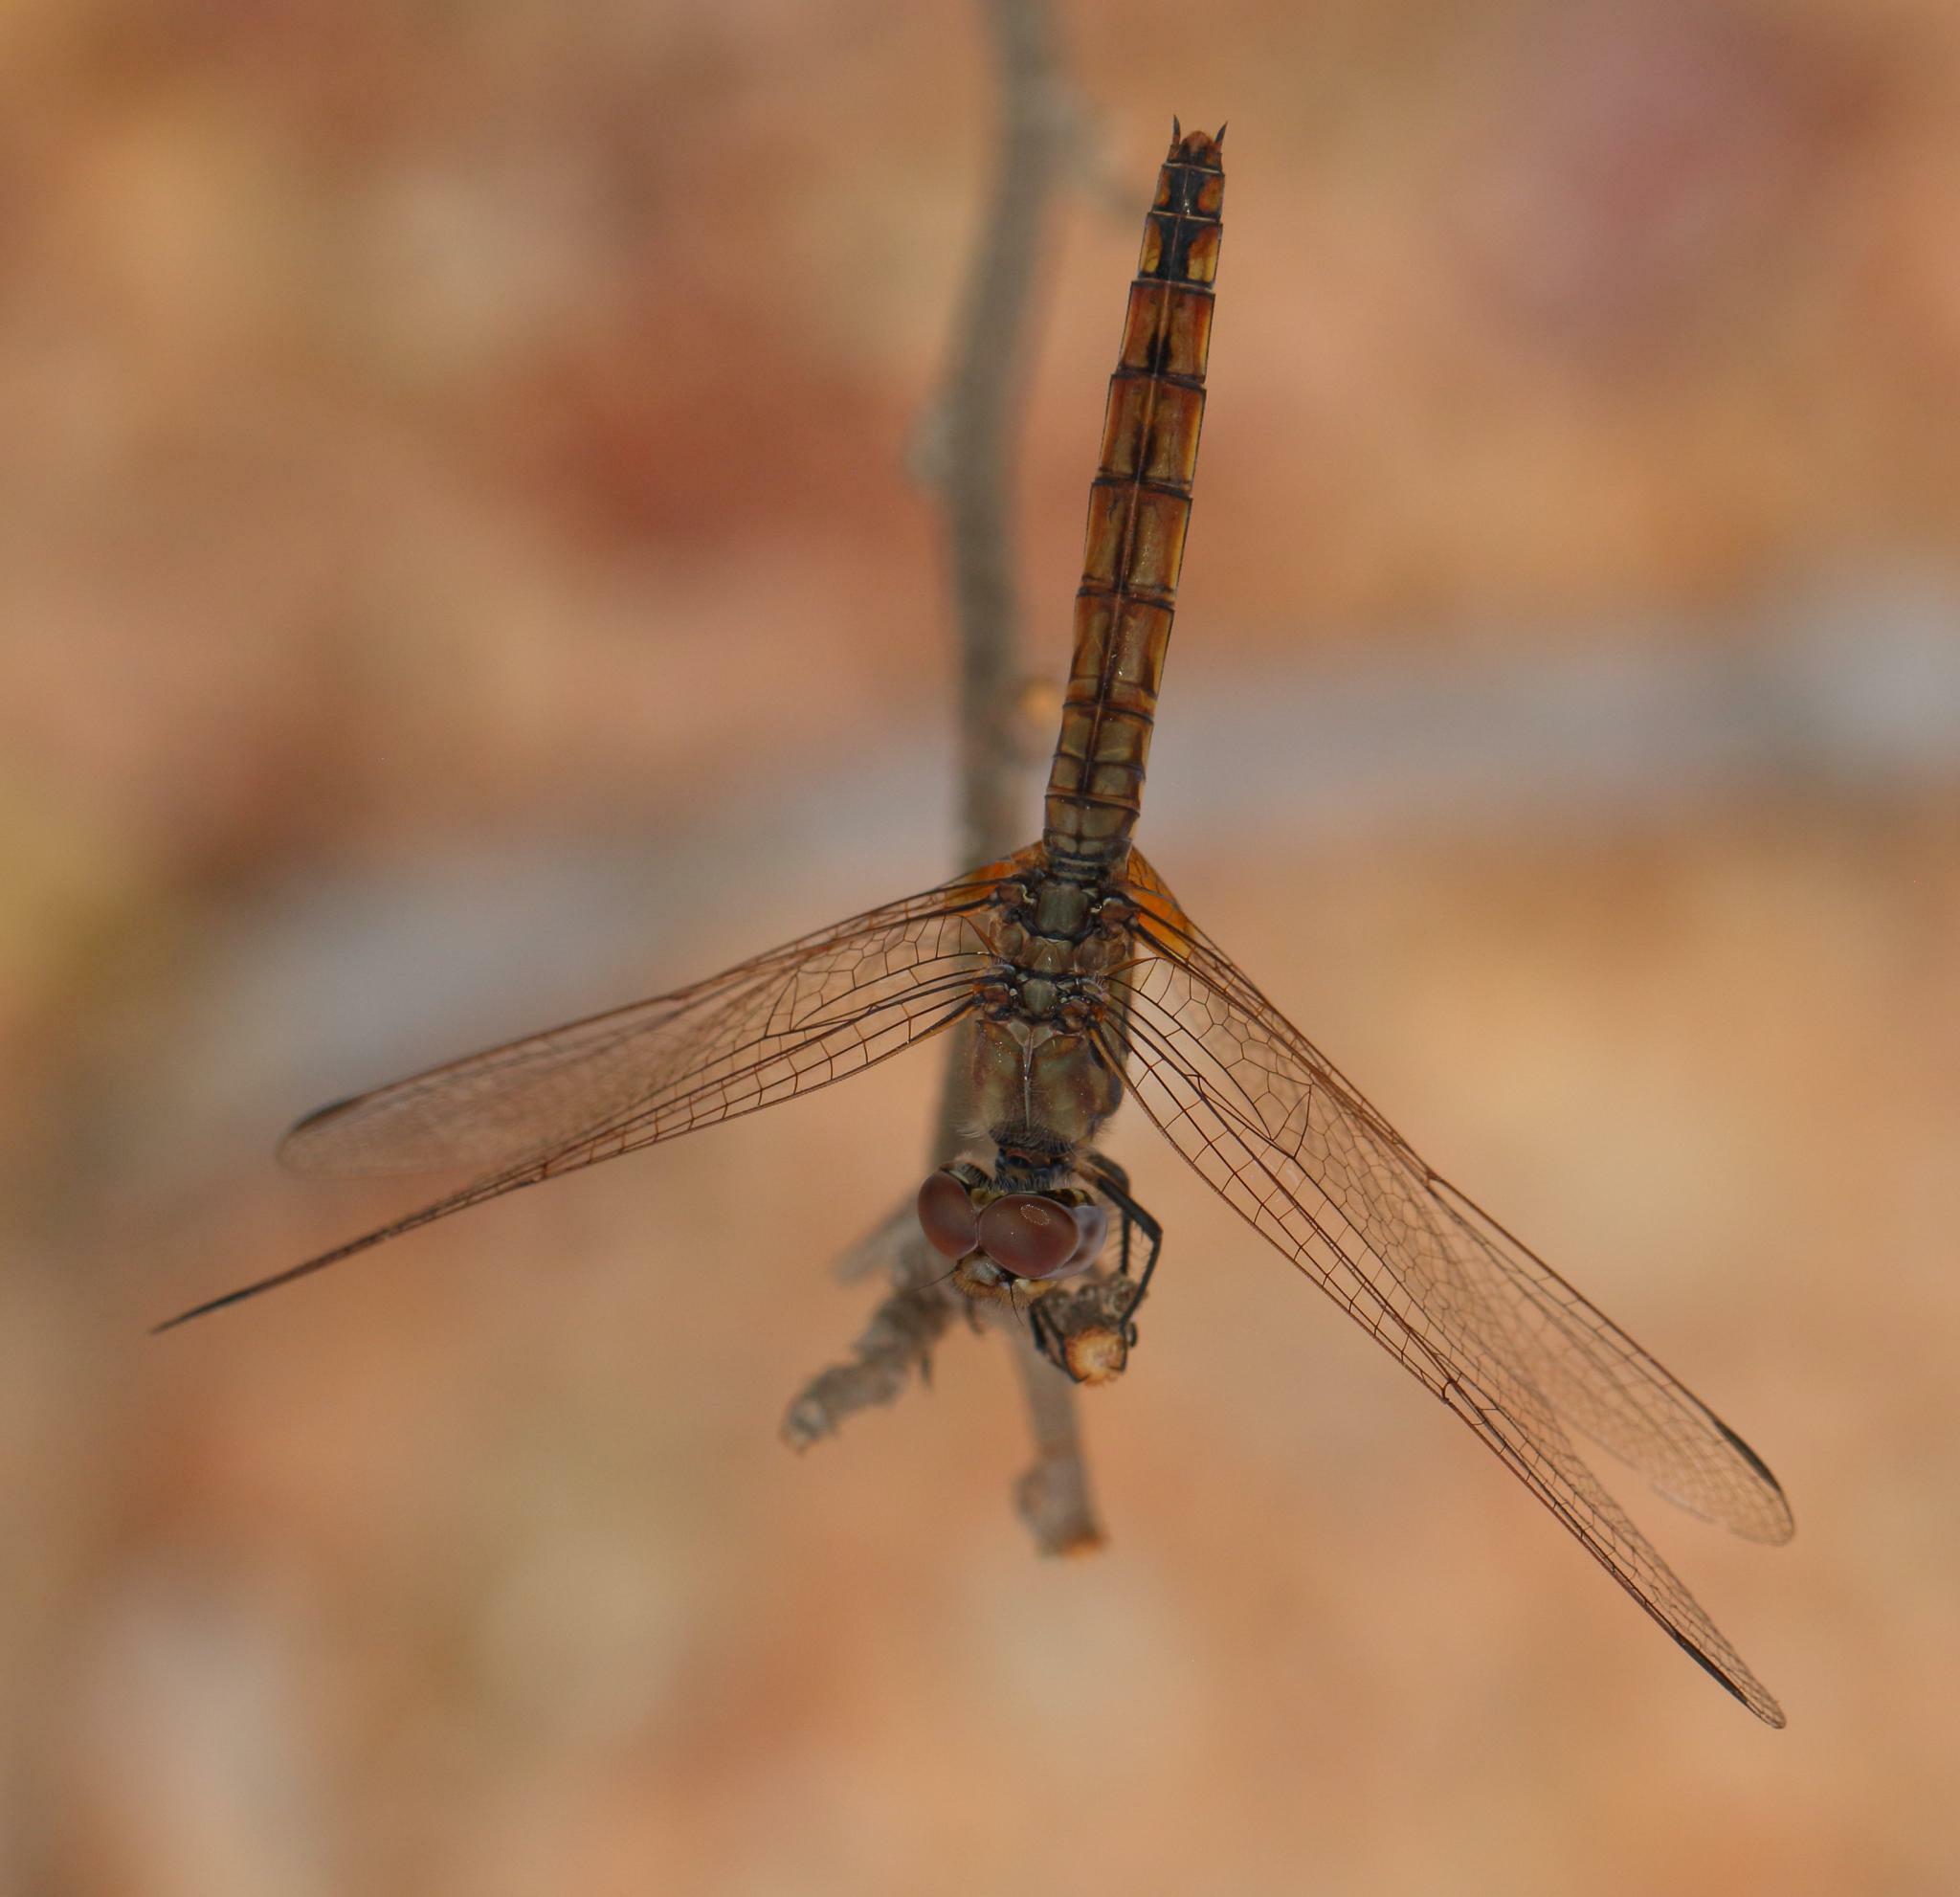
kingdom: Animalia
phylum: Arthropoda
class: Insecta
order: Odonata
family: Libellulidae
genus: Trithemis
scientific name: Trithemis annulata
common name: Violet dropwing
